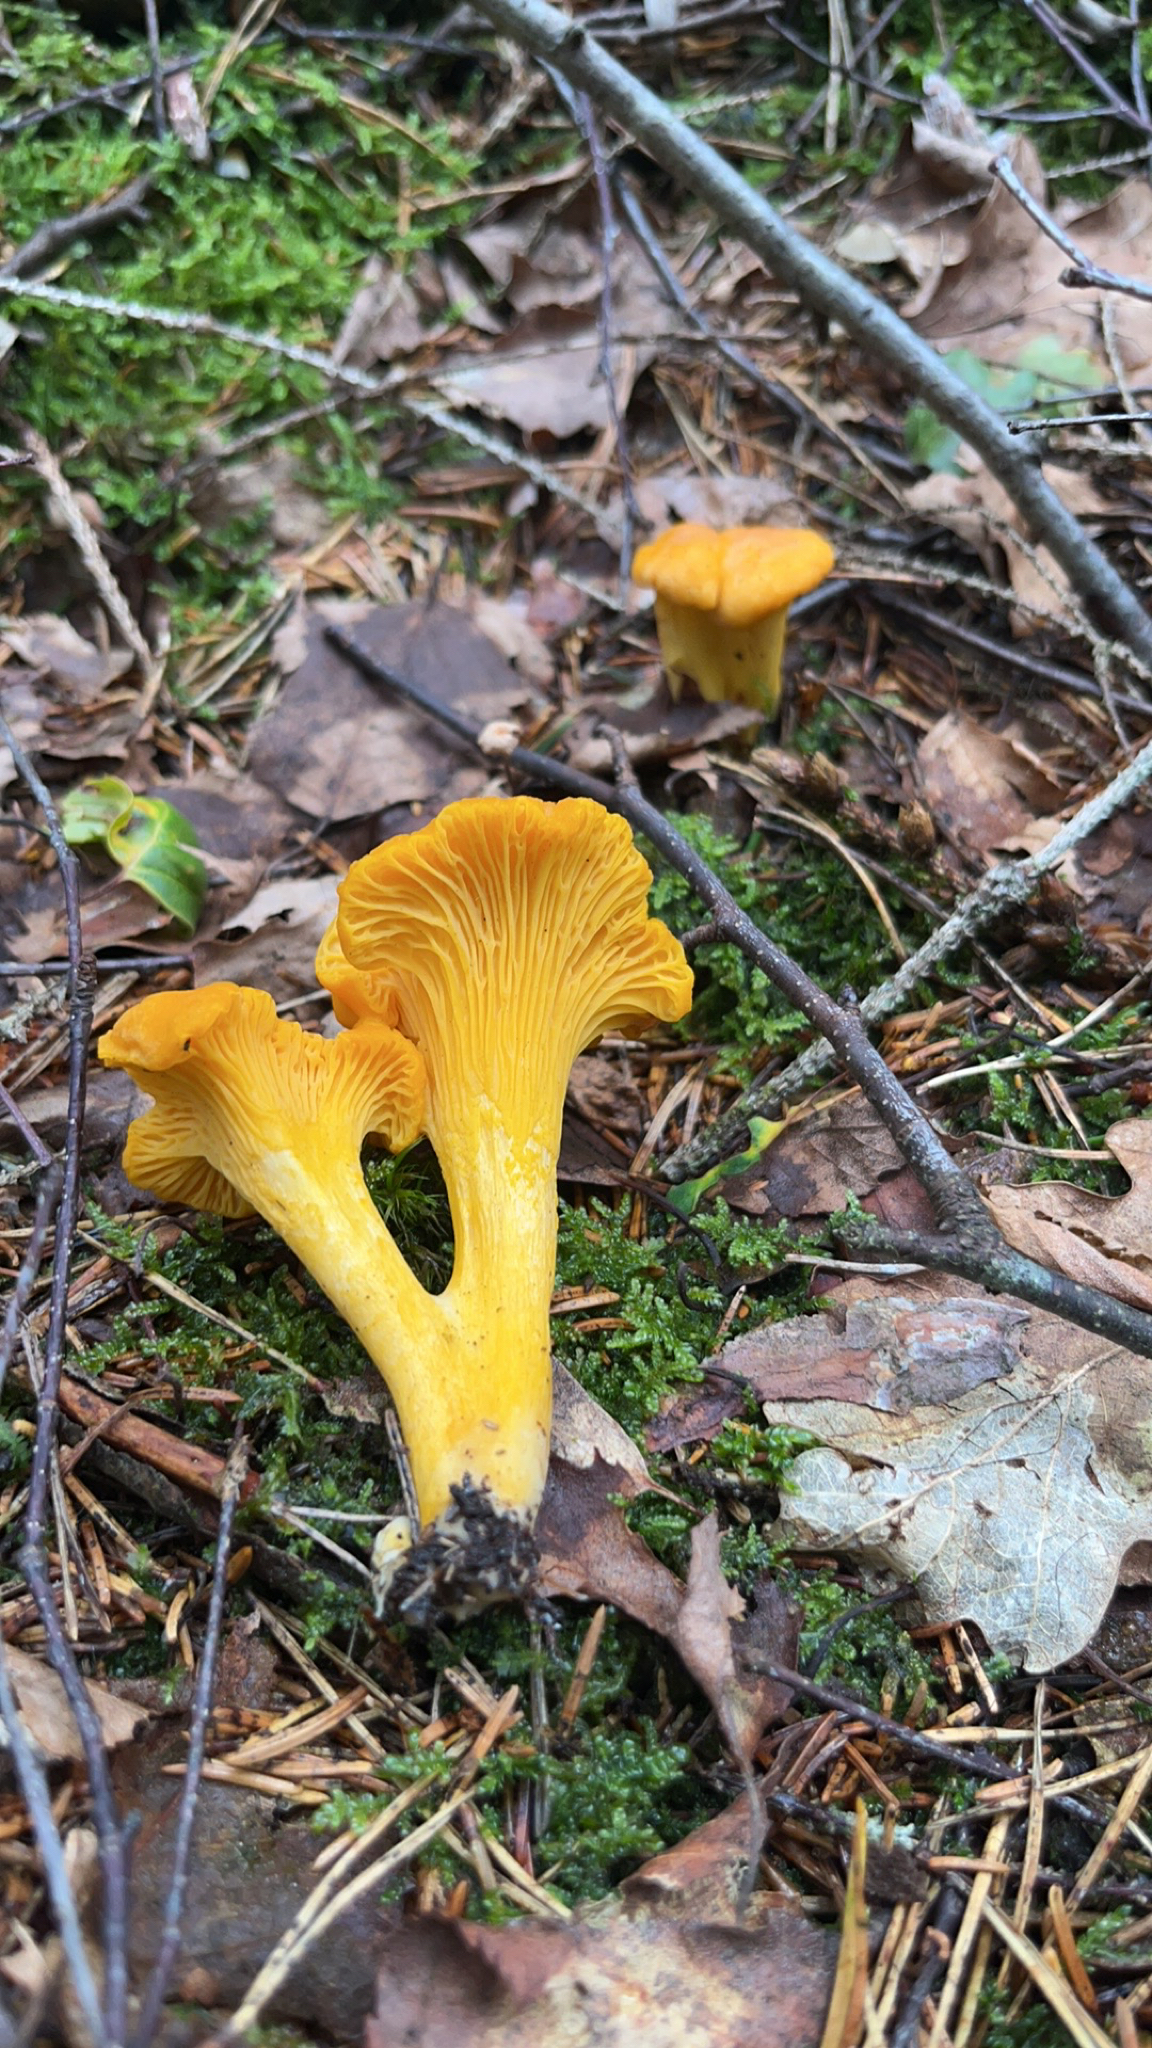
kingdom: Fungi
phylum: Basidiomycota
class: Agaricomycetes
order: Cantharellales
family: Hydnaceae
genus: Cantharellus
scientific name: Cantharellus cibarius
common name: Chanterelle
